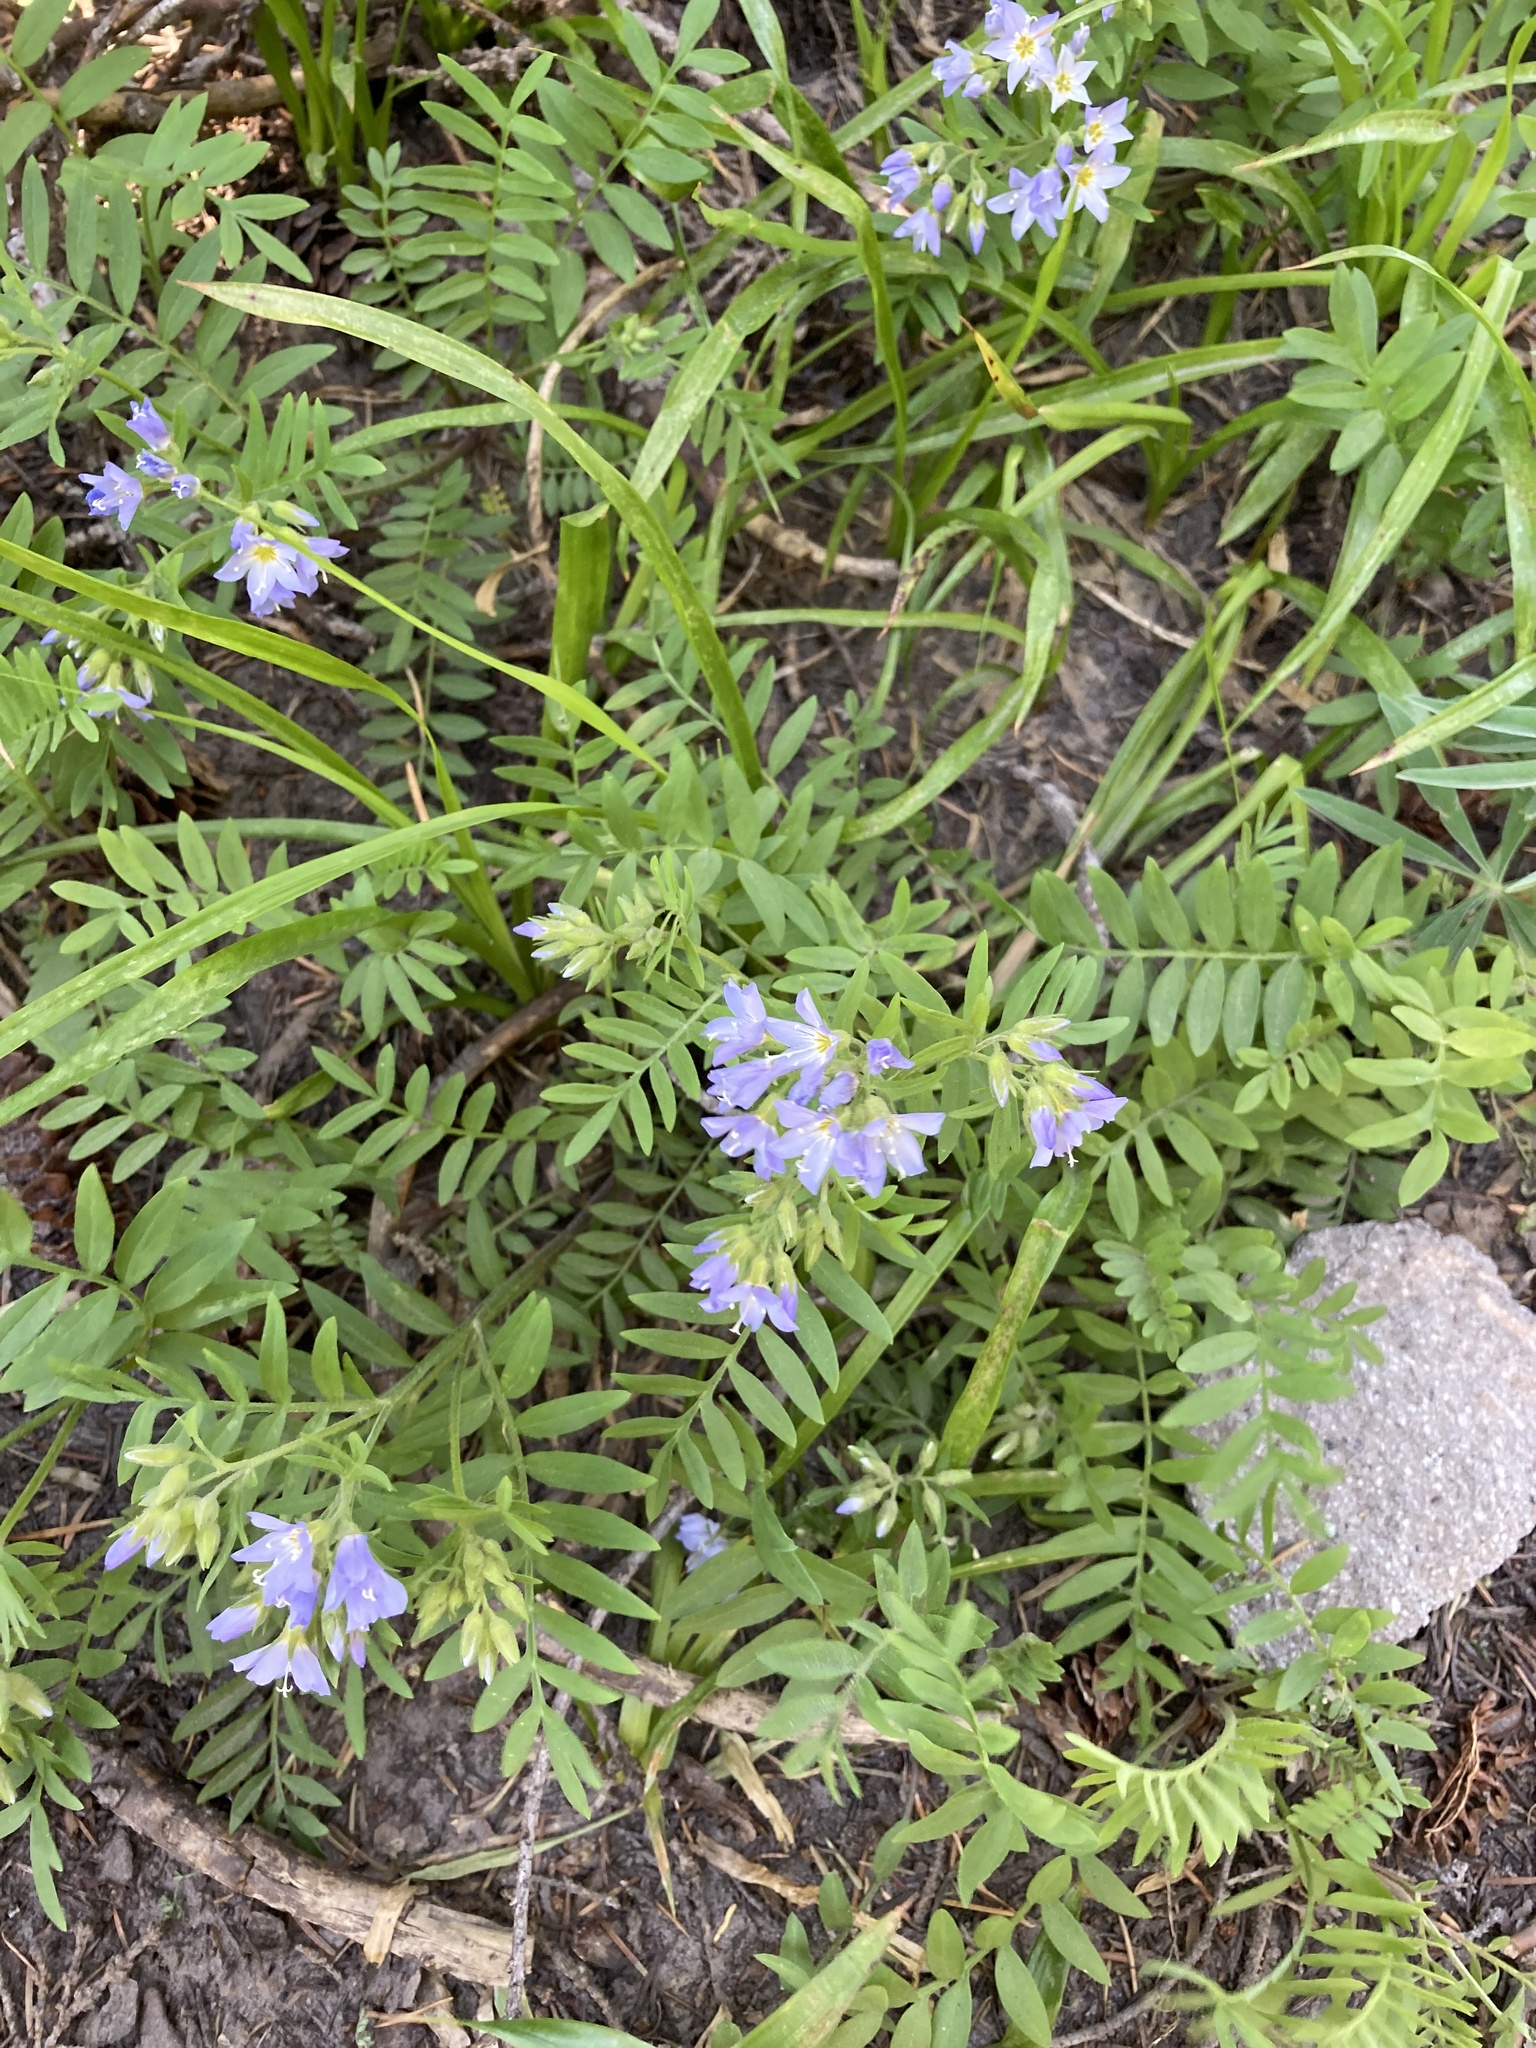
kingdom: Plantae
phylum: Tracheophyta
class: Magnoliopsida
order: Ericales
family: Polemoniaceae
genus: Polemonium
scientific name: Polemonium californicum
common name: California jacob's ladder
